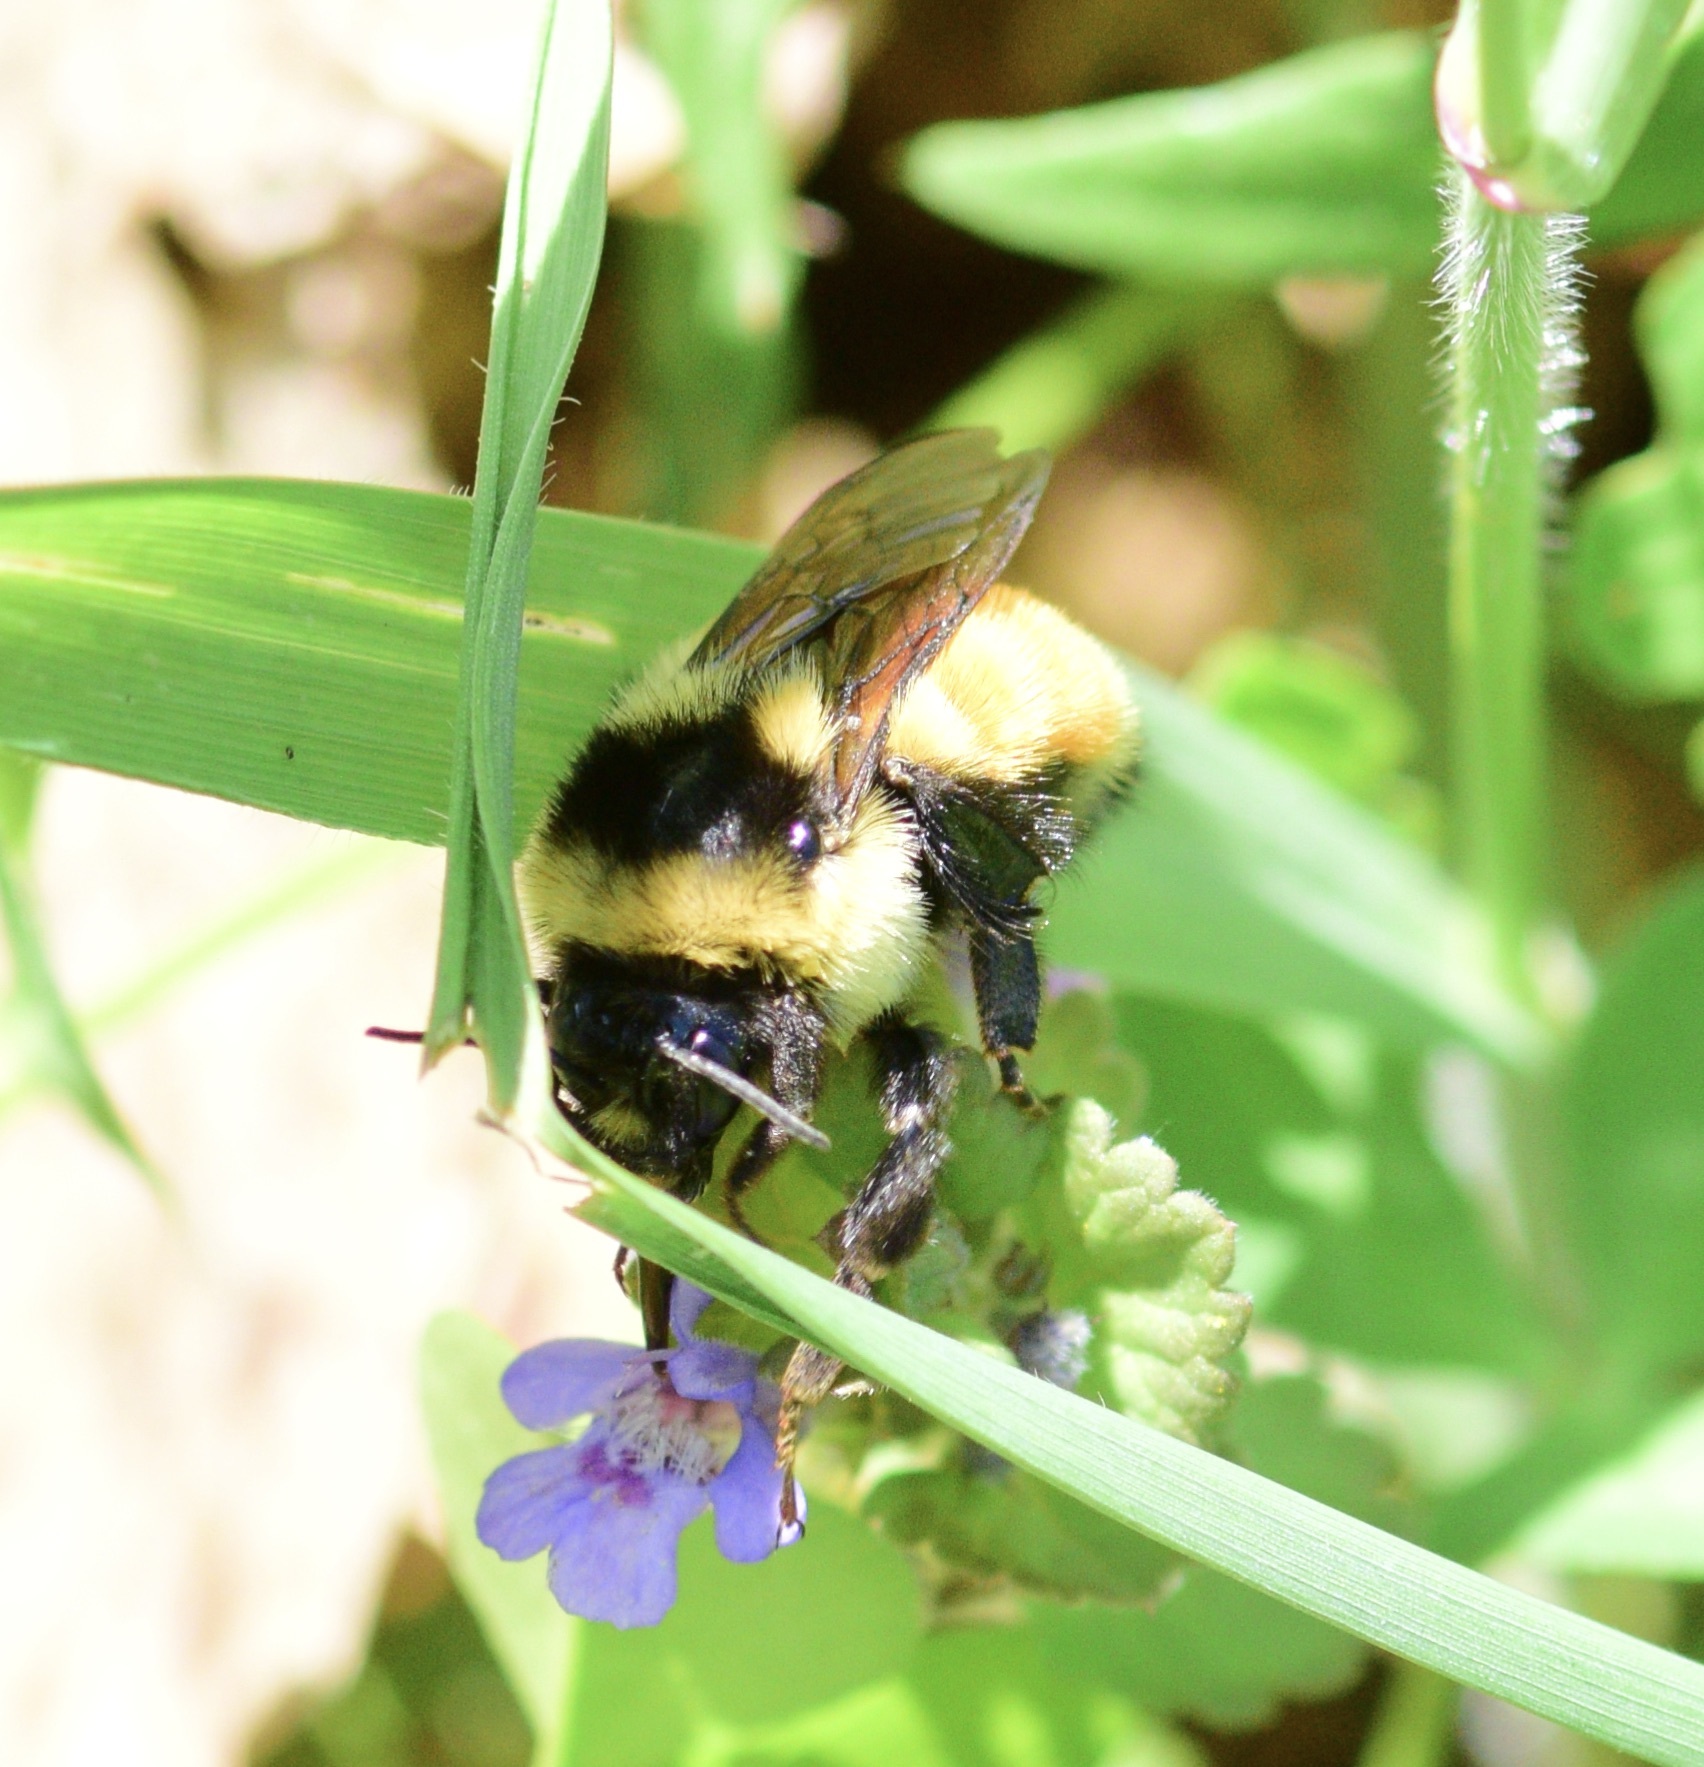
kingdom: Animalia
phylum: Arthropoda
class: Insecta
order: Hymenoptera
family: Apidae
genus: Bombus
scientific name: Bombus ternarius
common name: Tri-colored bumble bee
